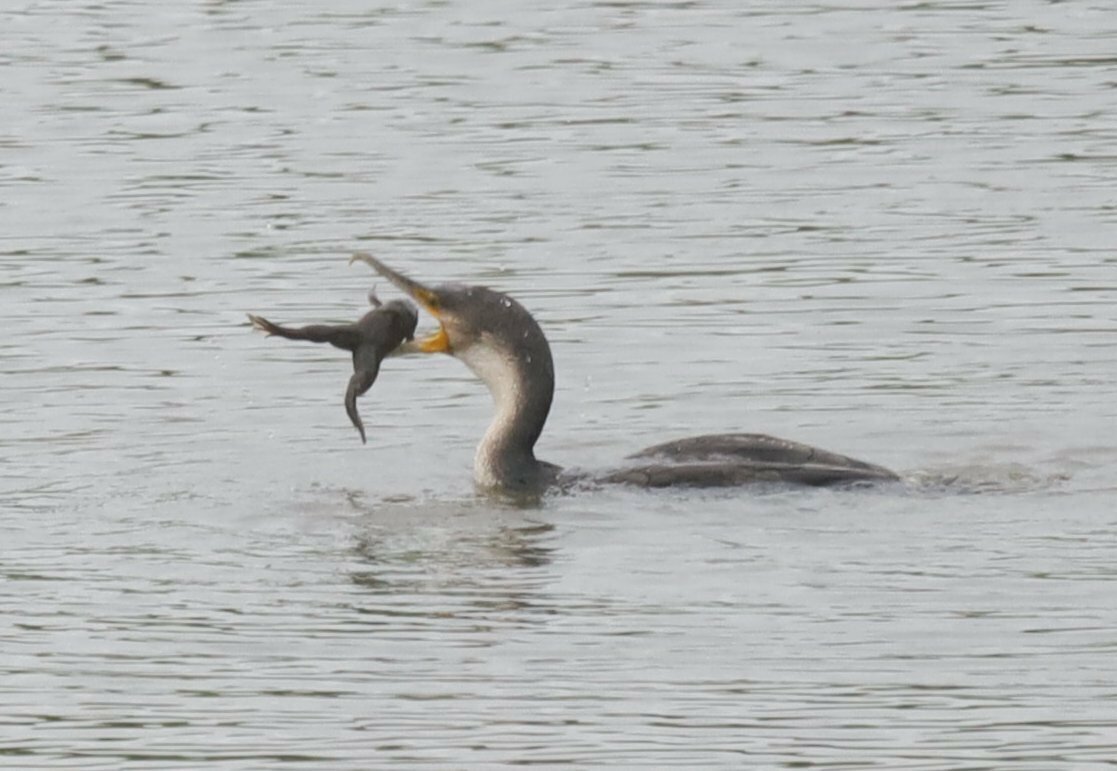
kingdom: Animalia
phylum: Chordata
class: Aves
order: Suliformes
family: Phalacrocoracidae
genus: Phalacrocorax
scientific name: Phalacrocorax carbo
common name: Great cormorant
